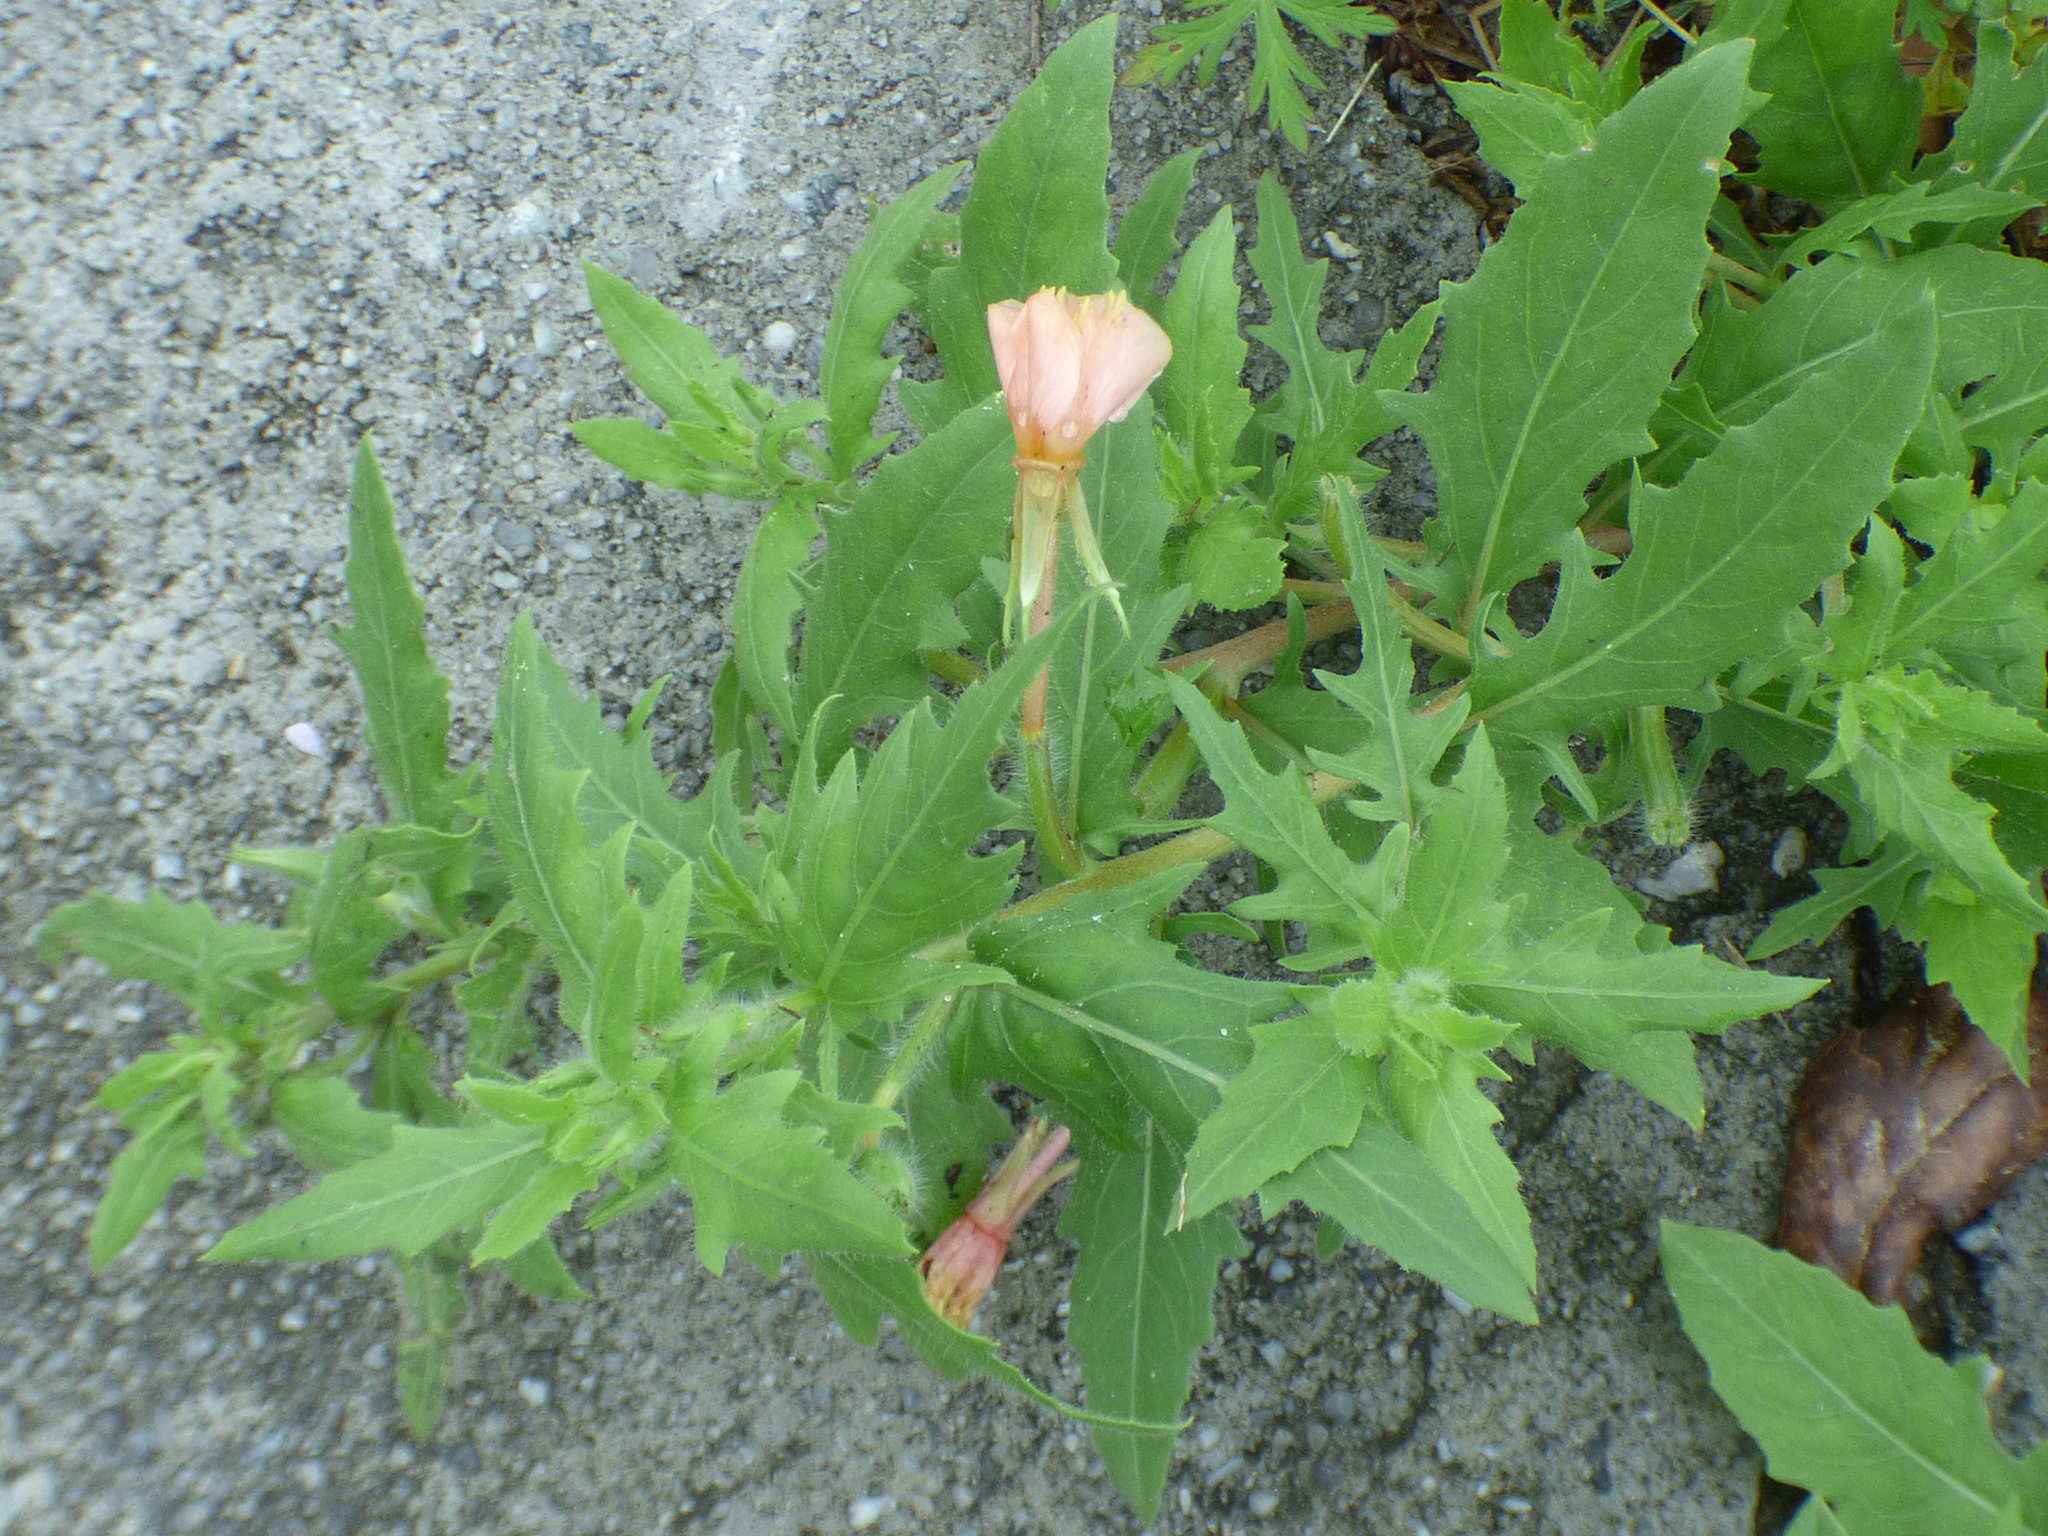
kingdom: Plantae
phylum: Tracheophyta
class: Magnoliopsida
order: Myrtales
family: Onagraceae
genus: Oenothera
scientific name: Oenothera laciniata
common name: Cut-leaved evening-primrose
